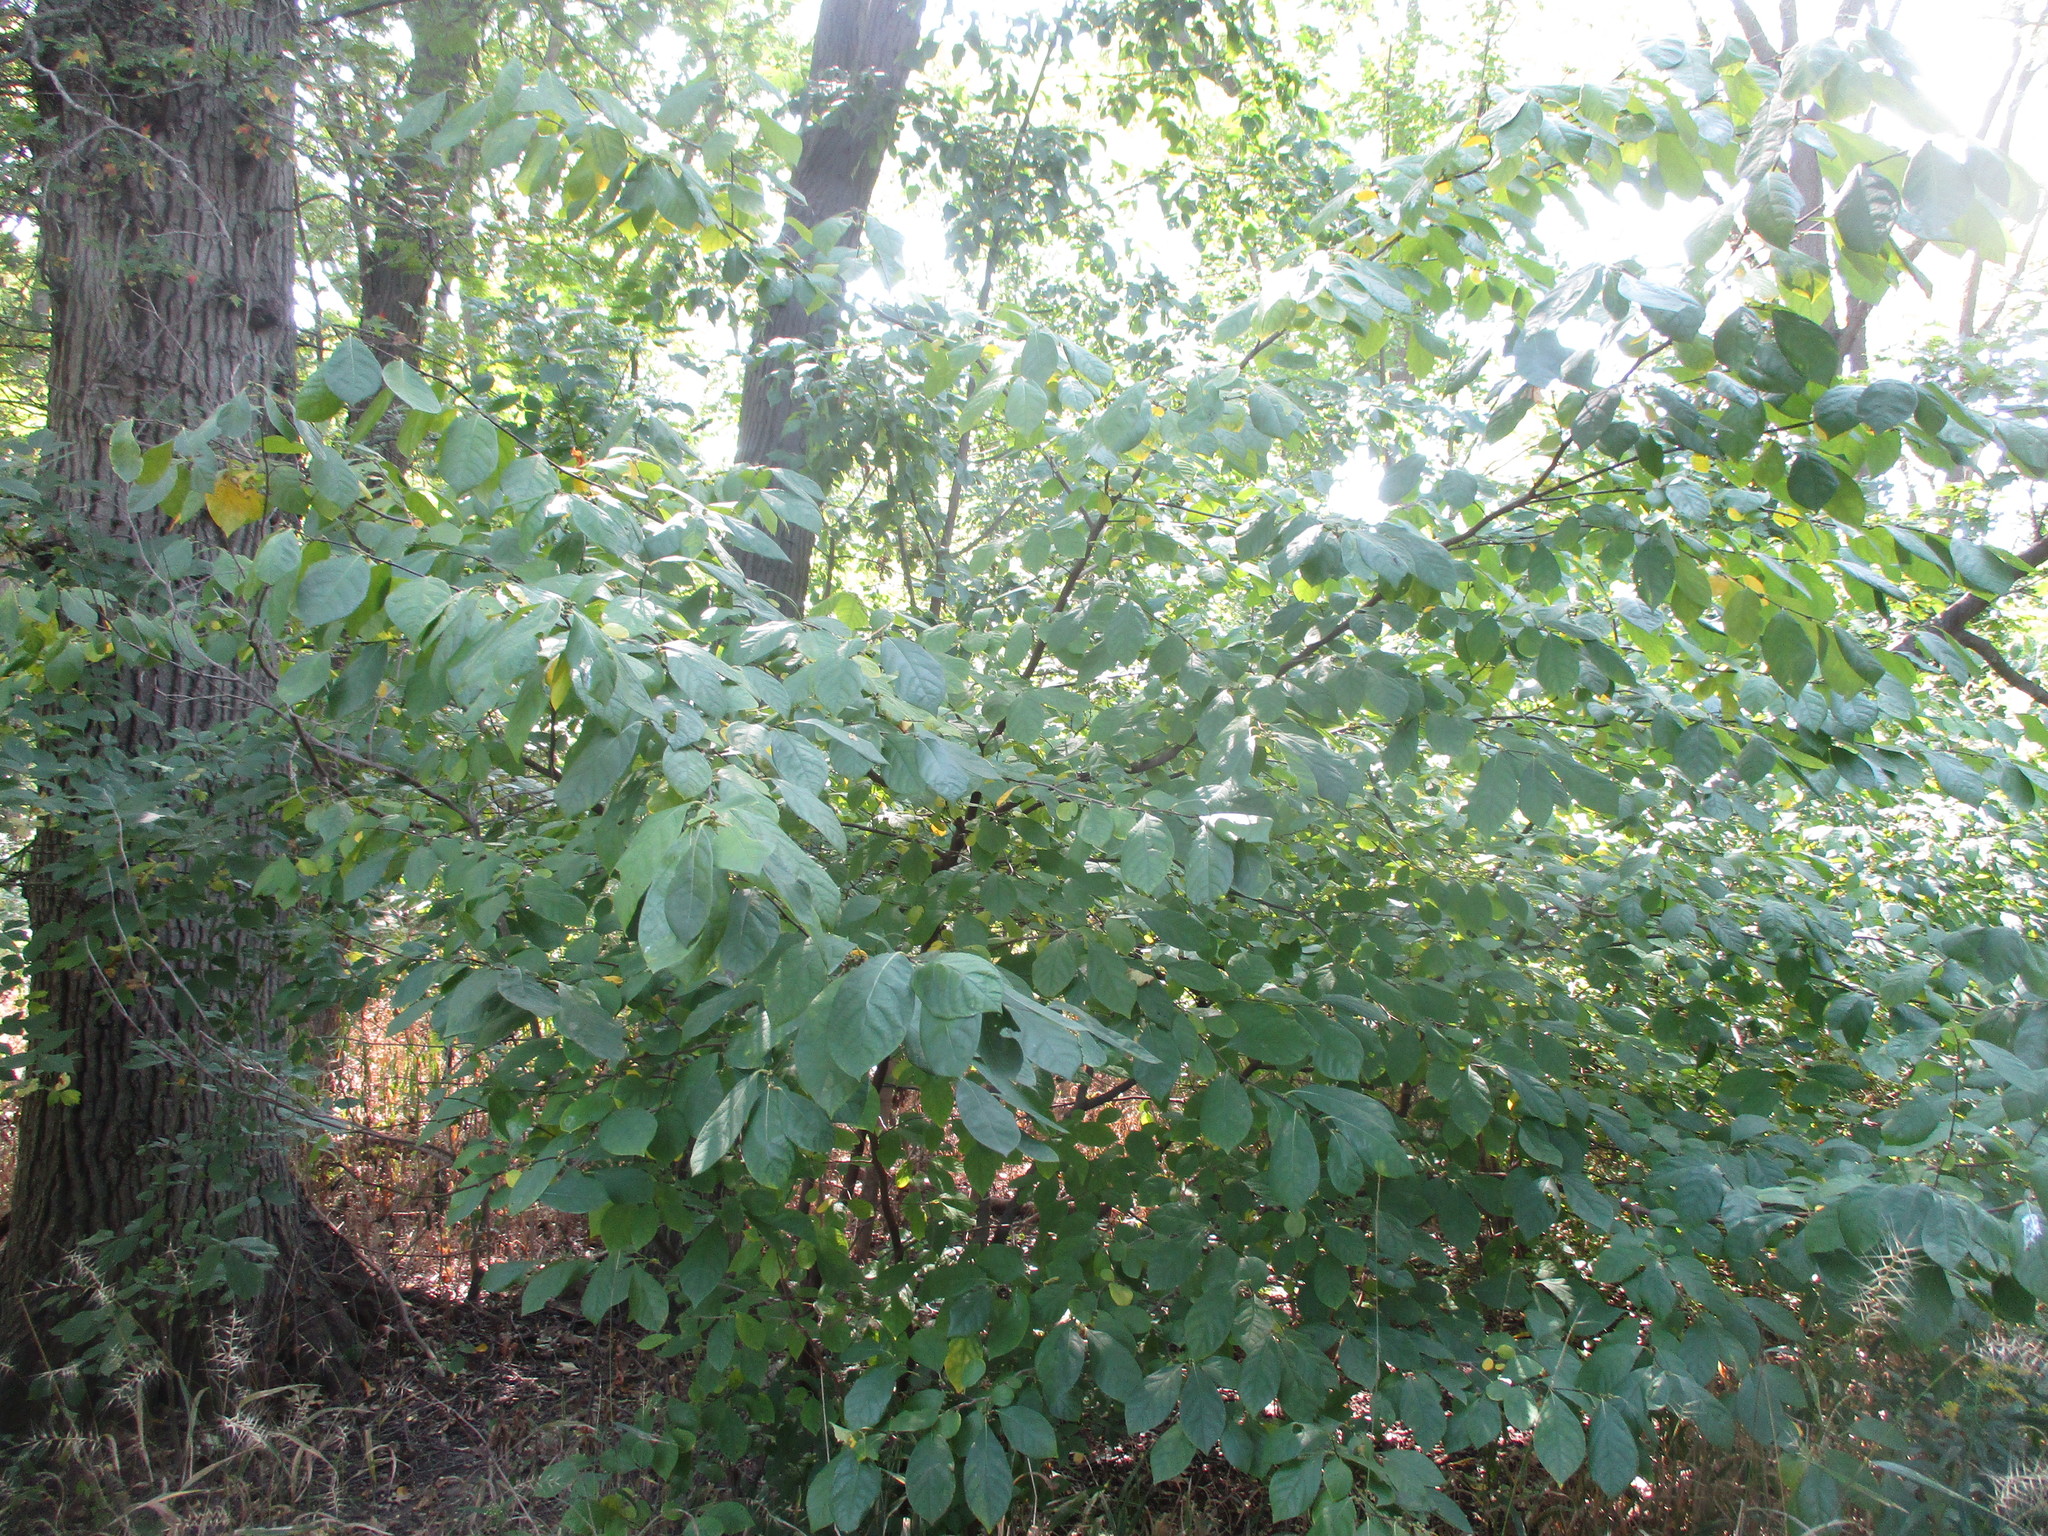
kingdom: Plantae
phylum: Tracheophyta
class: Magnoliopsida
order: Laurales
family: Lauraceae
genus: Lindera
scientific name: Lindera benzoin
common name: Spicebush
